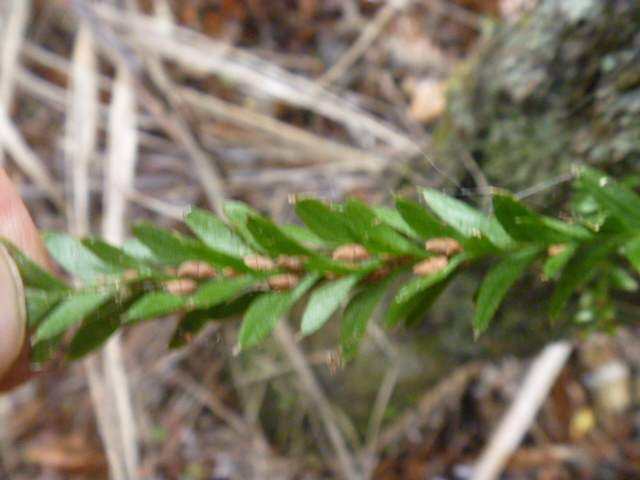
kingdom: Plantae
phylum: Tracheophyta
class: Polypodiopsida
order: Psilotales
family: Psilotaceae
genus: Tmesipteris
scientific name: Tmesipteris tannensis
